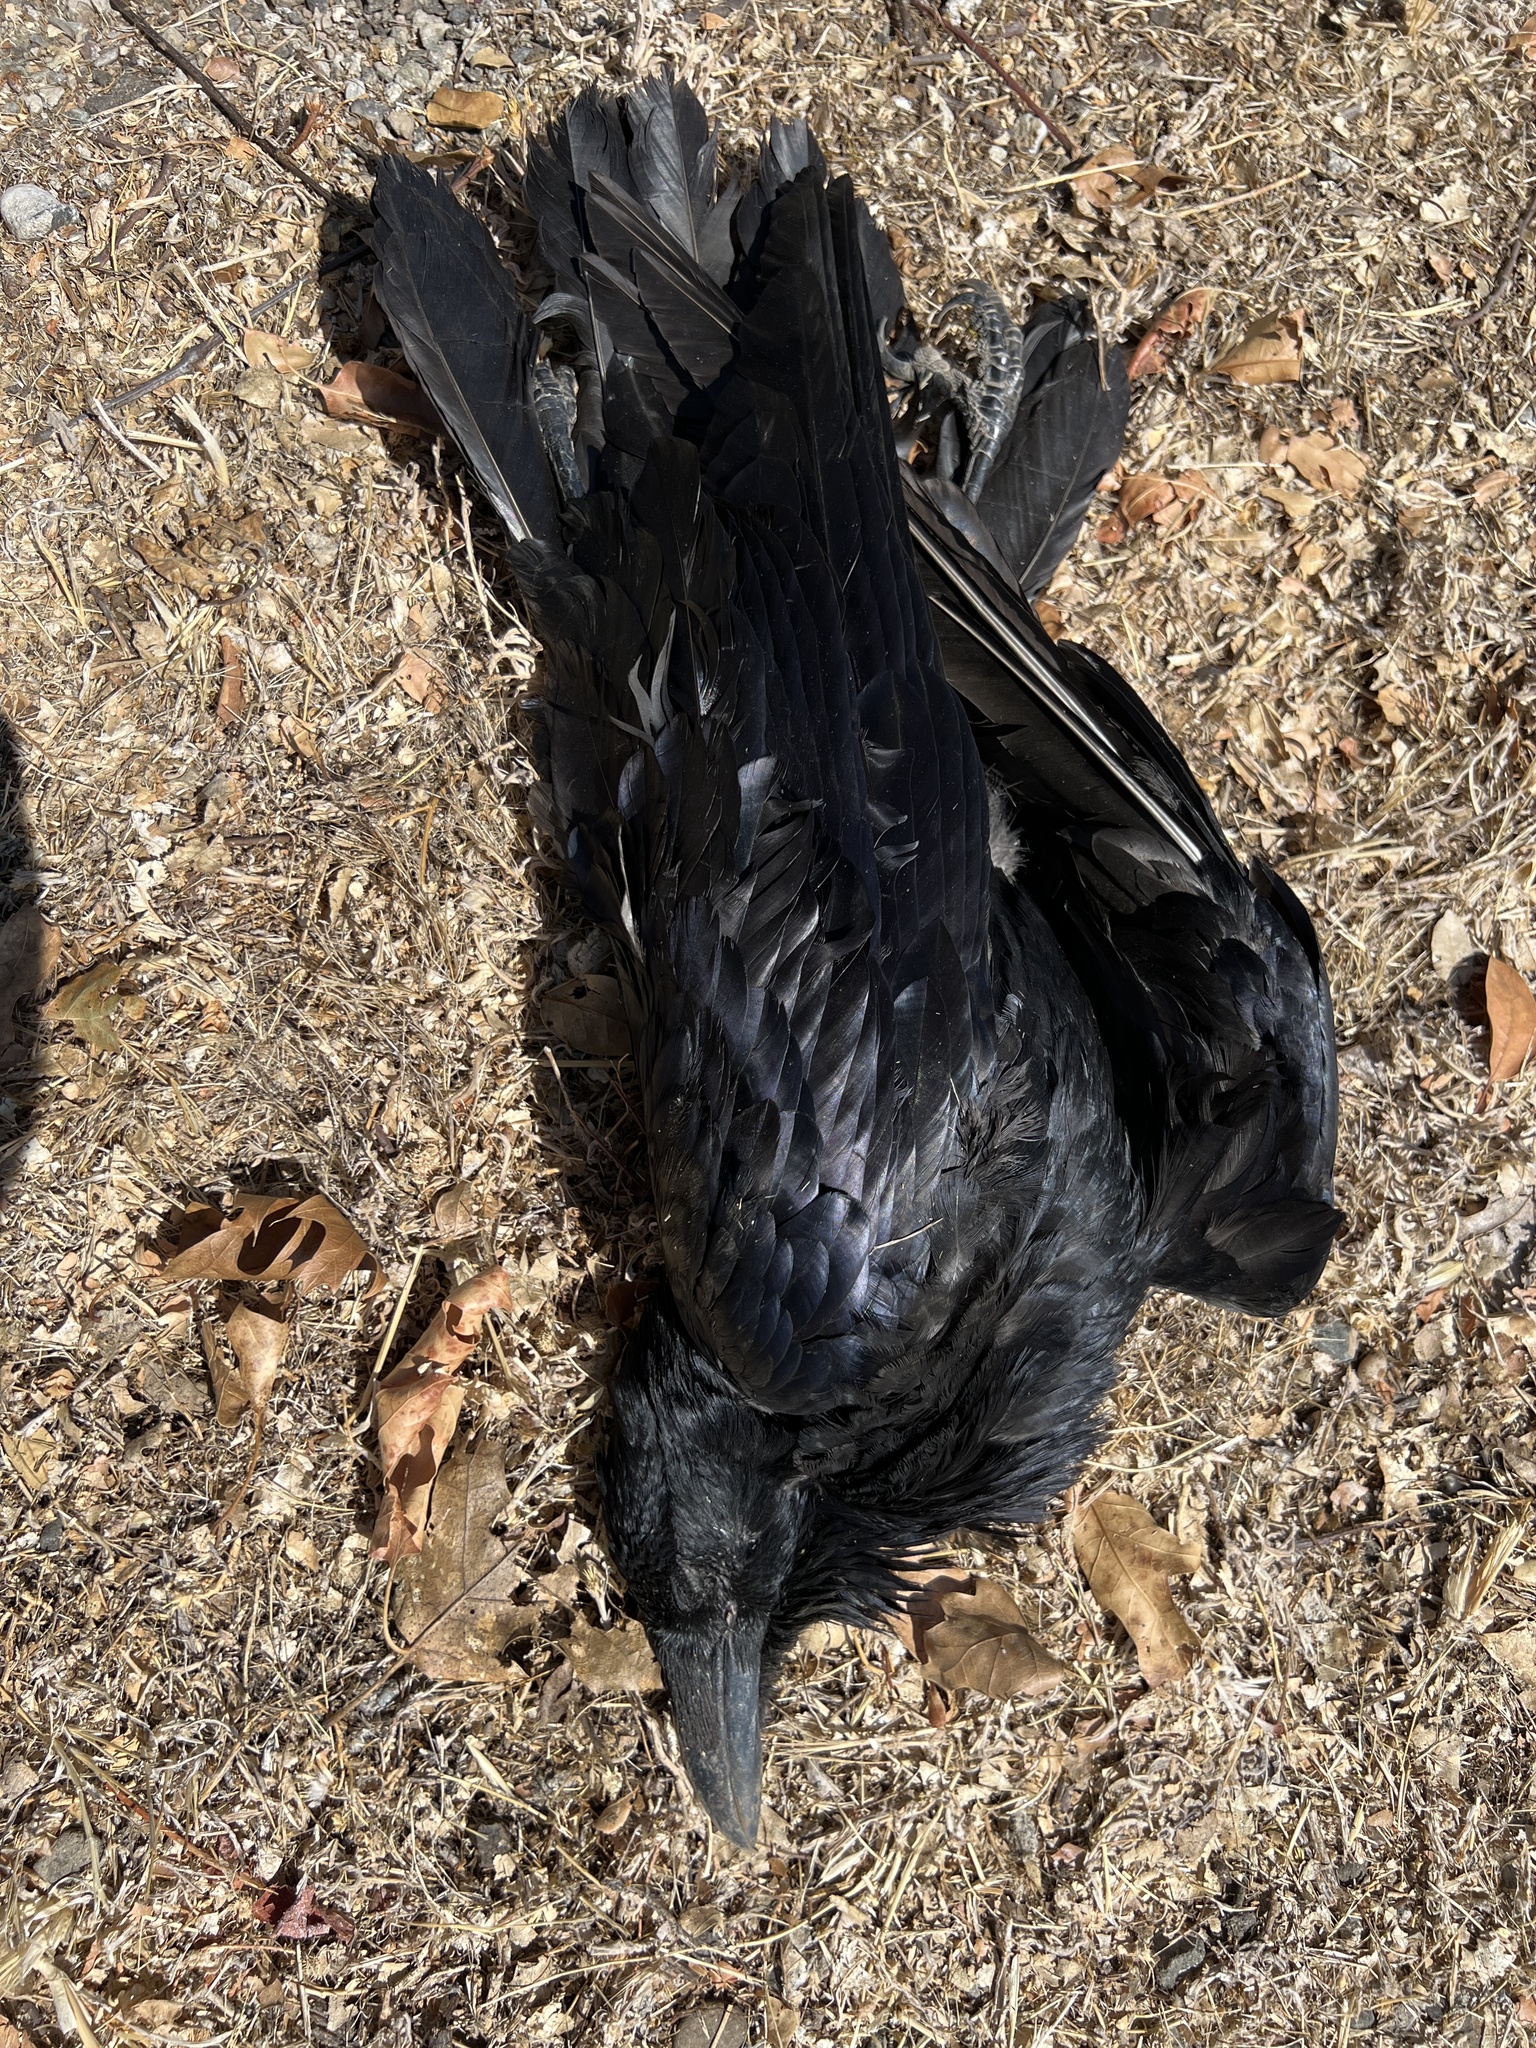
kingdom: Animalia
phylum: Chordata
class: Aves
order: Passeriformes
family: Corvidae
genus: Corvus
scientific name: Corvus corax
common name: Common raven
